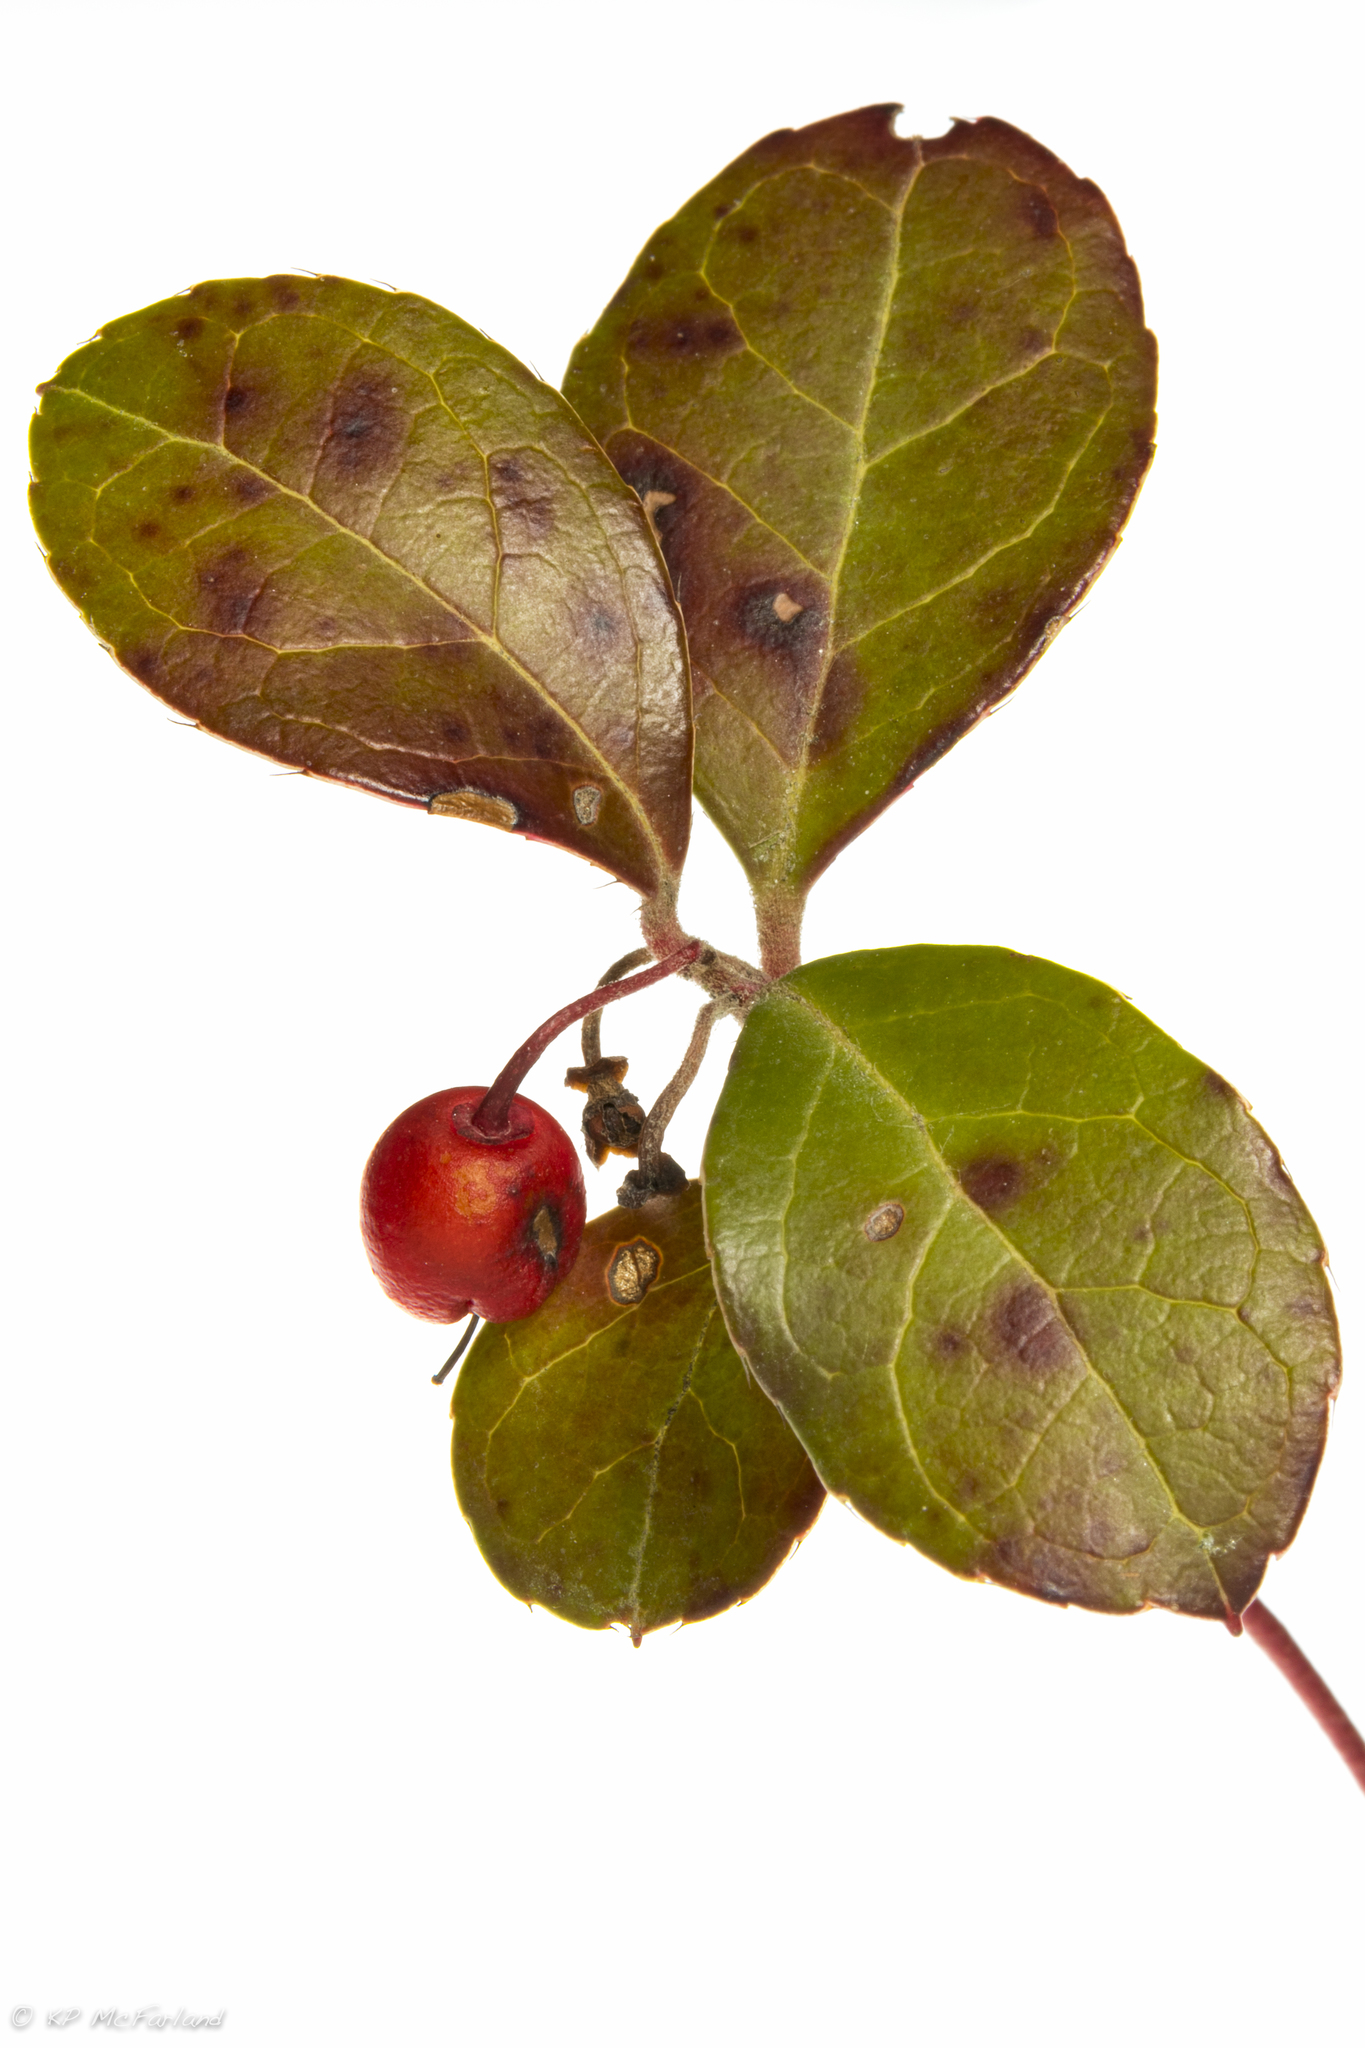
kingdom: Plantae
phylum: Tracheophyta
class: Magnoliopsida
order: Ericales
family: Ericaceae
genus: Gaultheria
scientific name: Gaultheria procumbens
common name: Checkerberry
